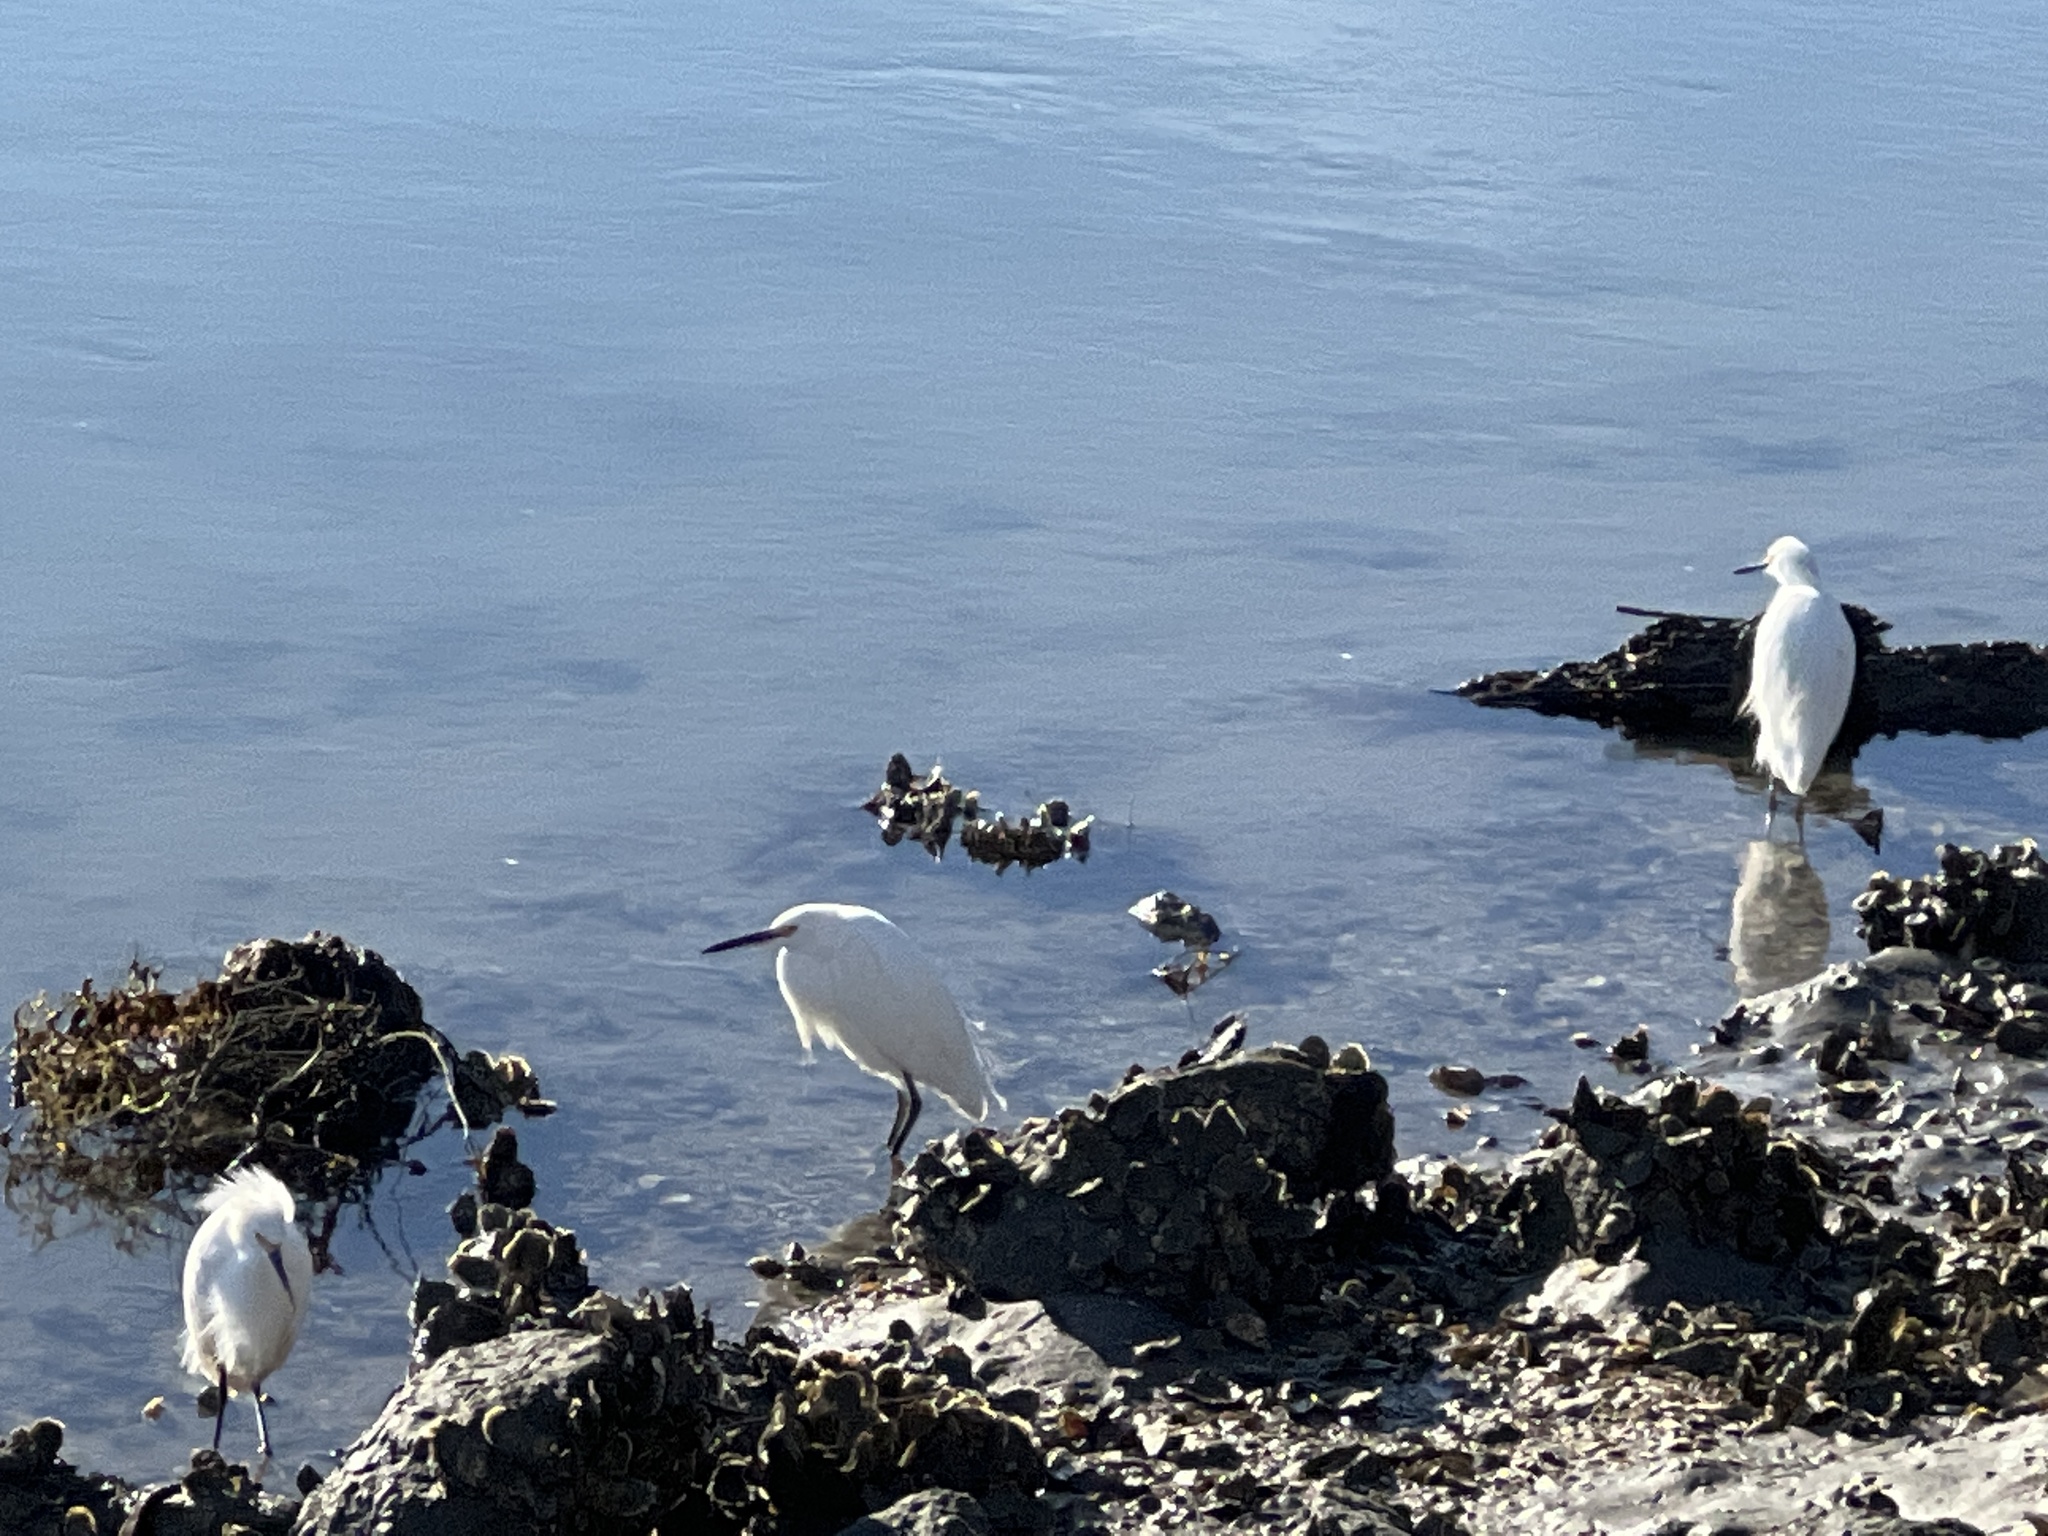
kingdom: Animalia
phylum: Chordata
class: Aves
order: Pelecaniformes
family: Ardeidae
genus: Egretta
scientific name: Egretta thula
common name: Snowy egret
